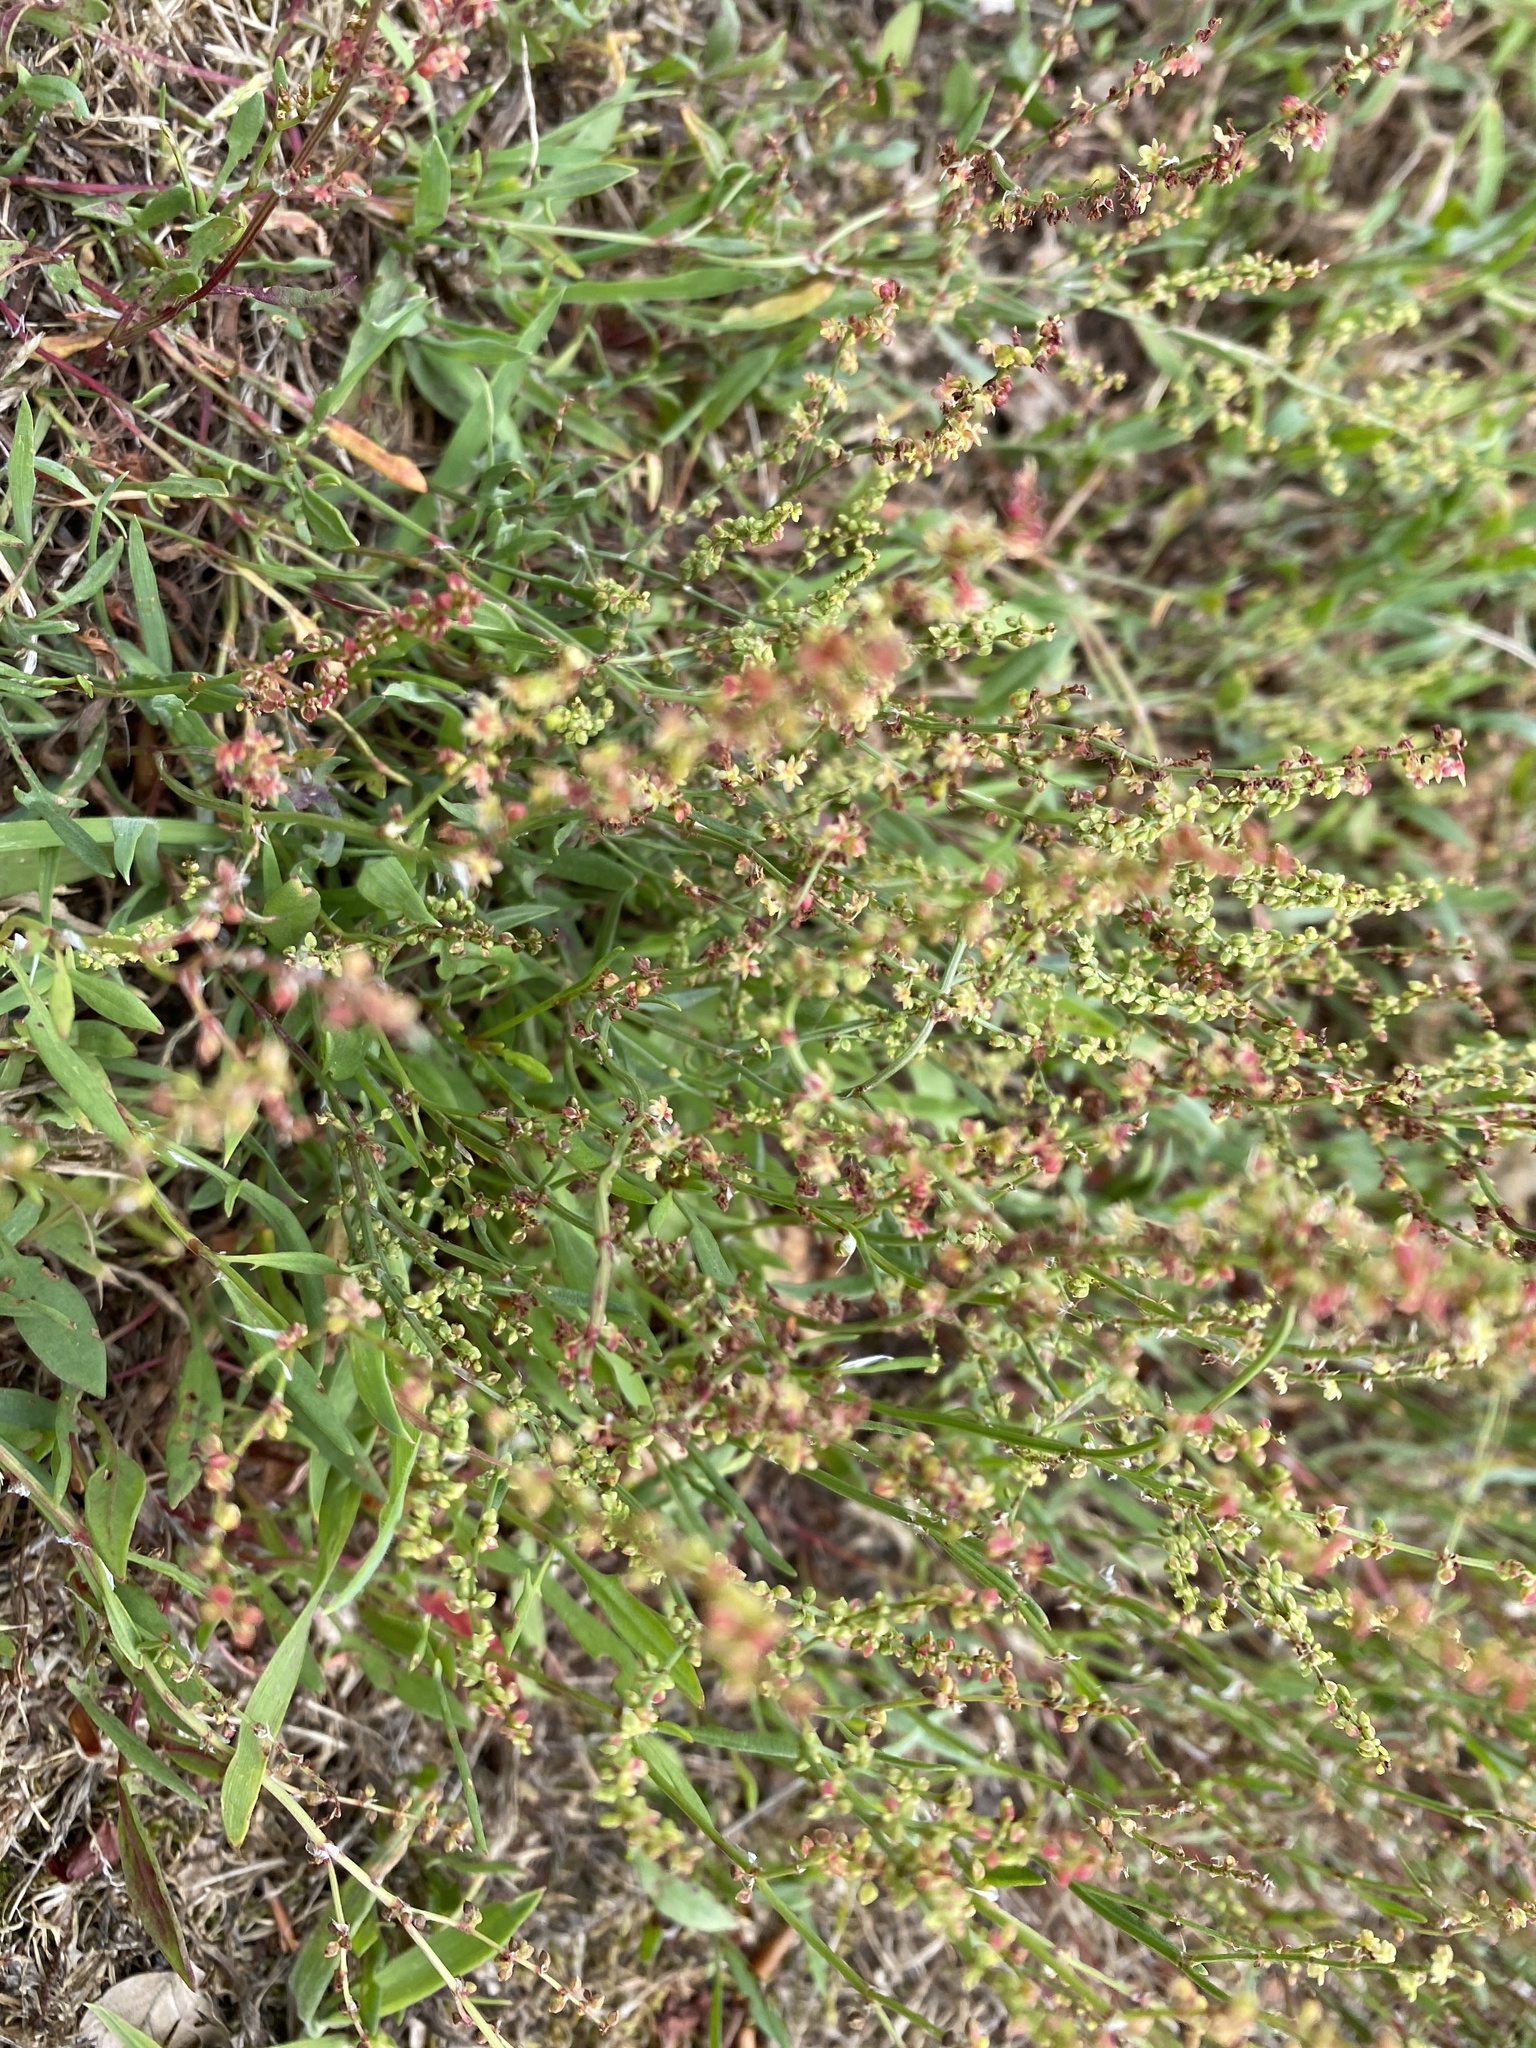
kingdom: Plantae
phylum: Tracheophyta
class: Magnoliopsida
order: Caryophyllales
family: Polygonaceae
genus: Rumex
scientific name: Rumex acetosella
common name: Common sheep sorrel
